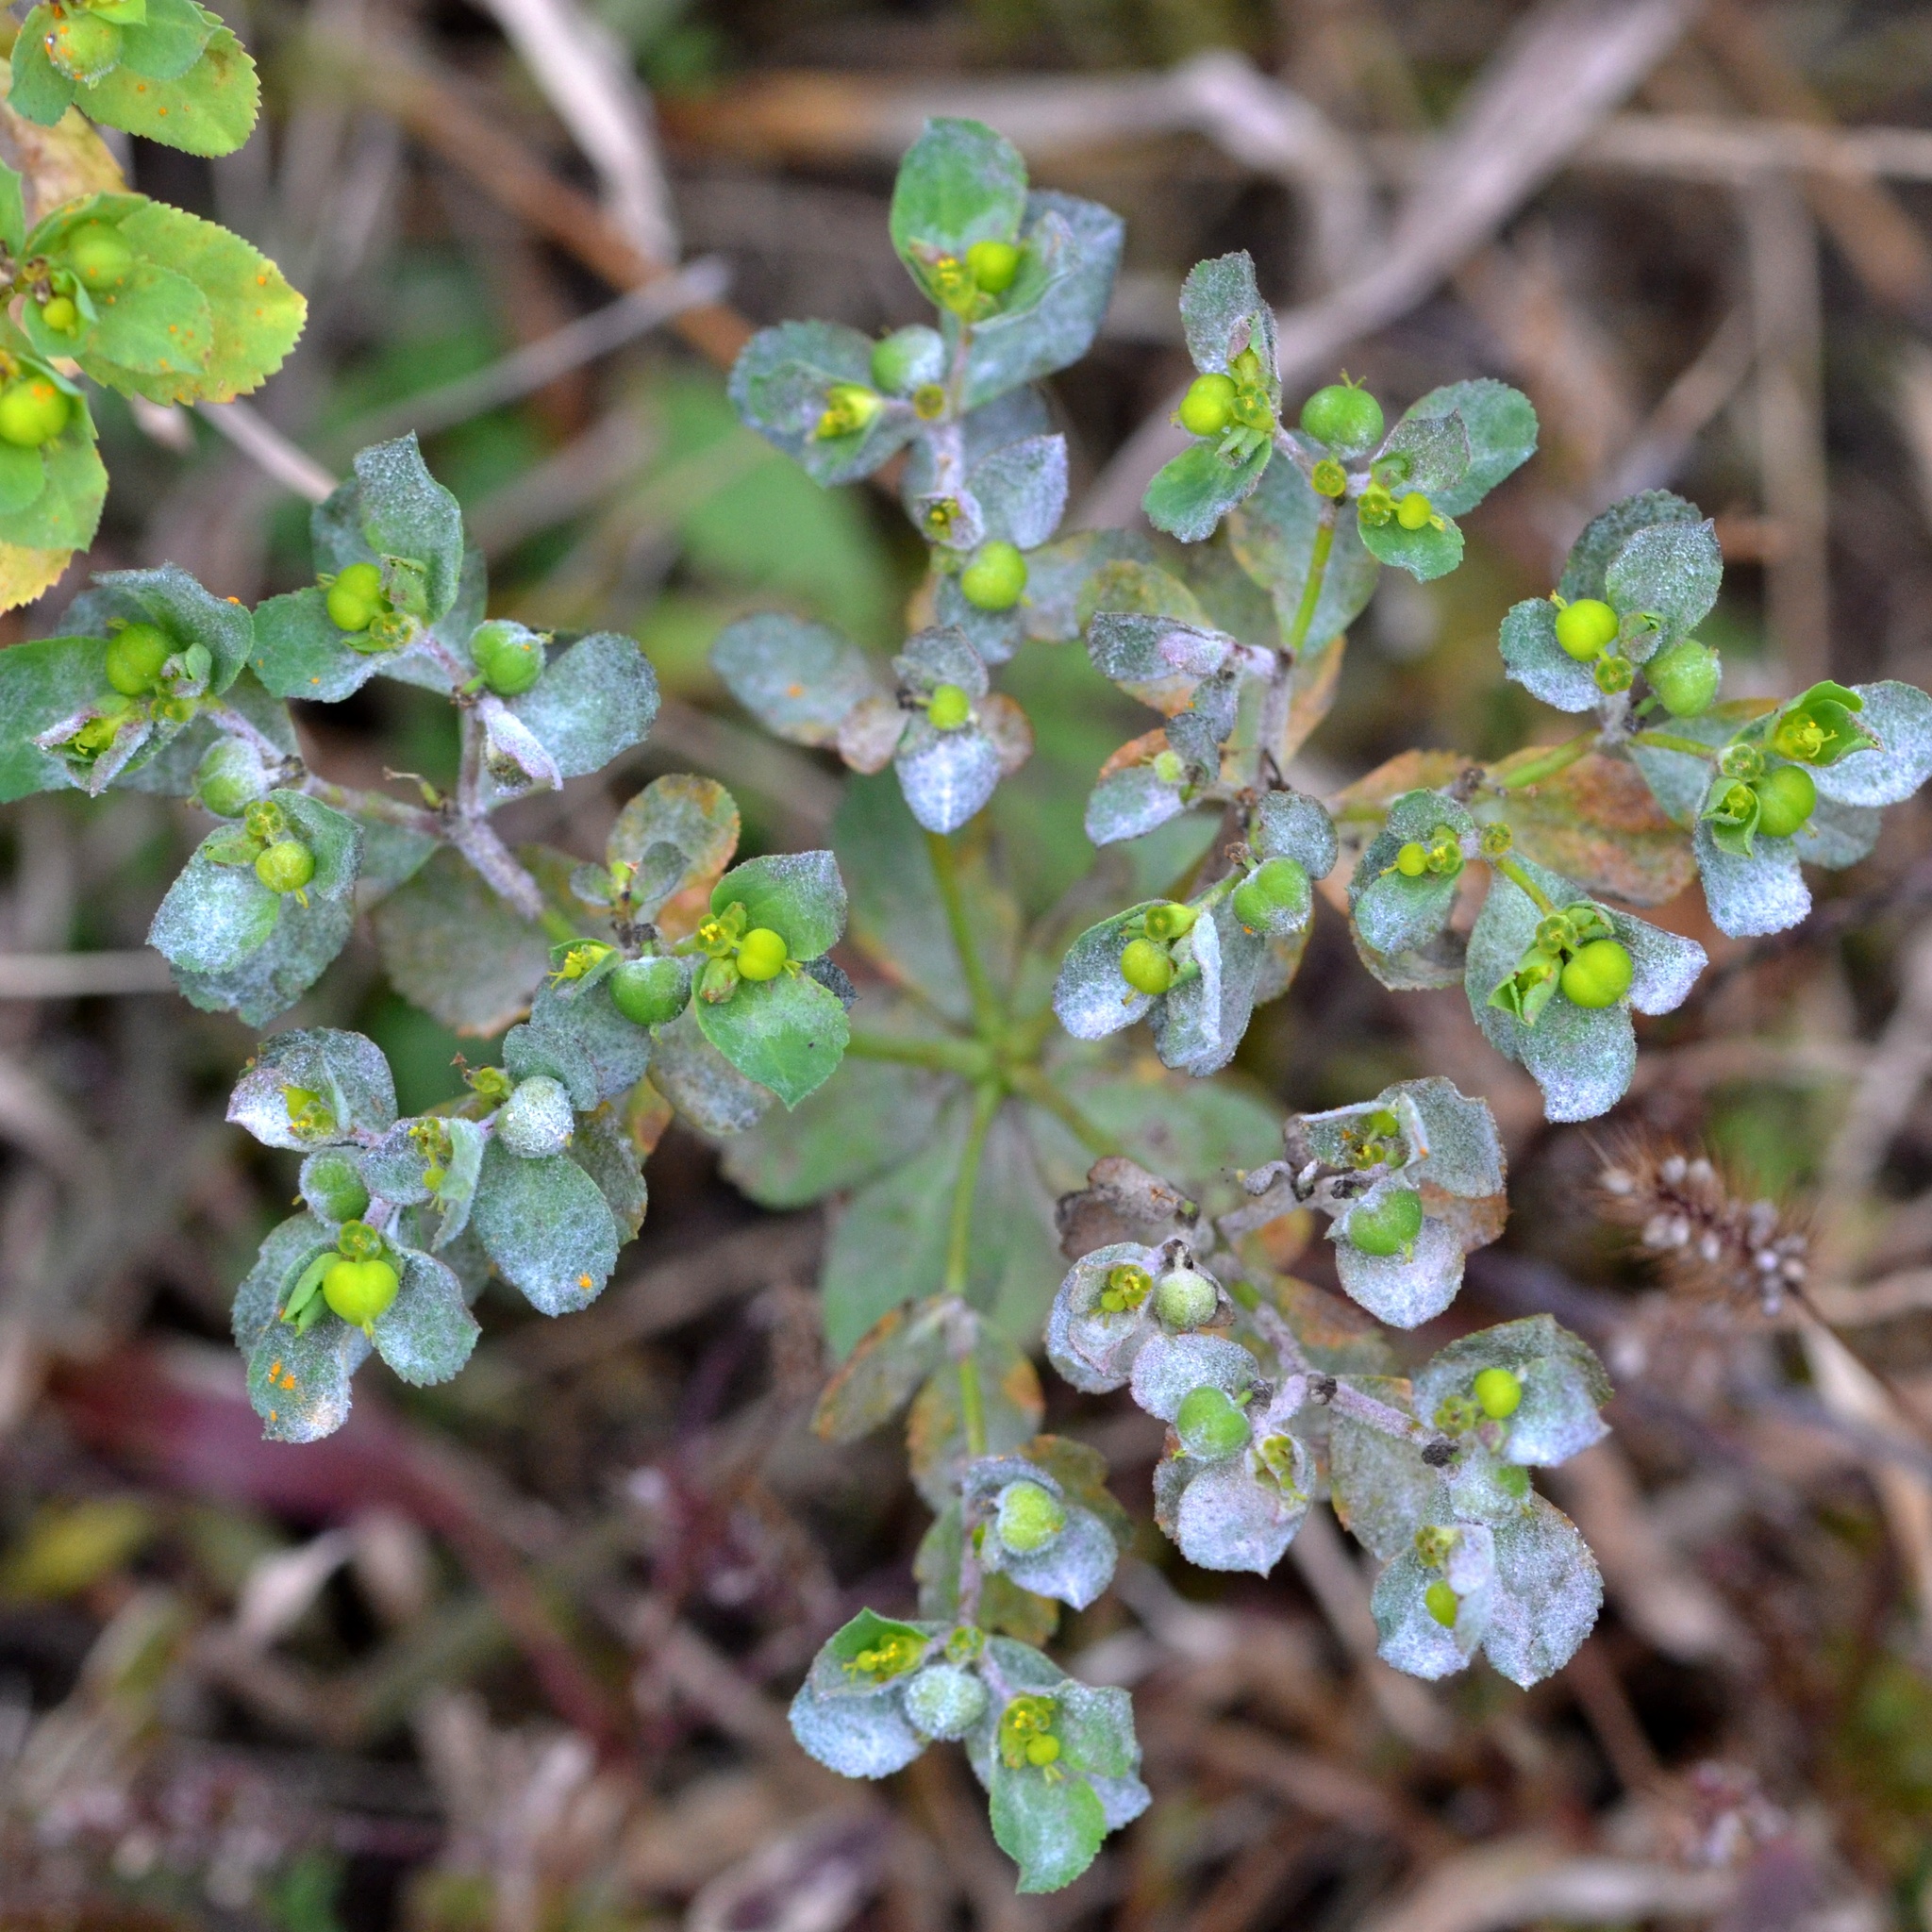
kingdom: Plantae
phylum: Tracheophyta
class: Magnoliopsida
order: Malpighiales
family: Euphorbiaceae
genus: Euphorbia
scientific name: Euphorbia helioscopia
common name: Sun spurge
